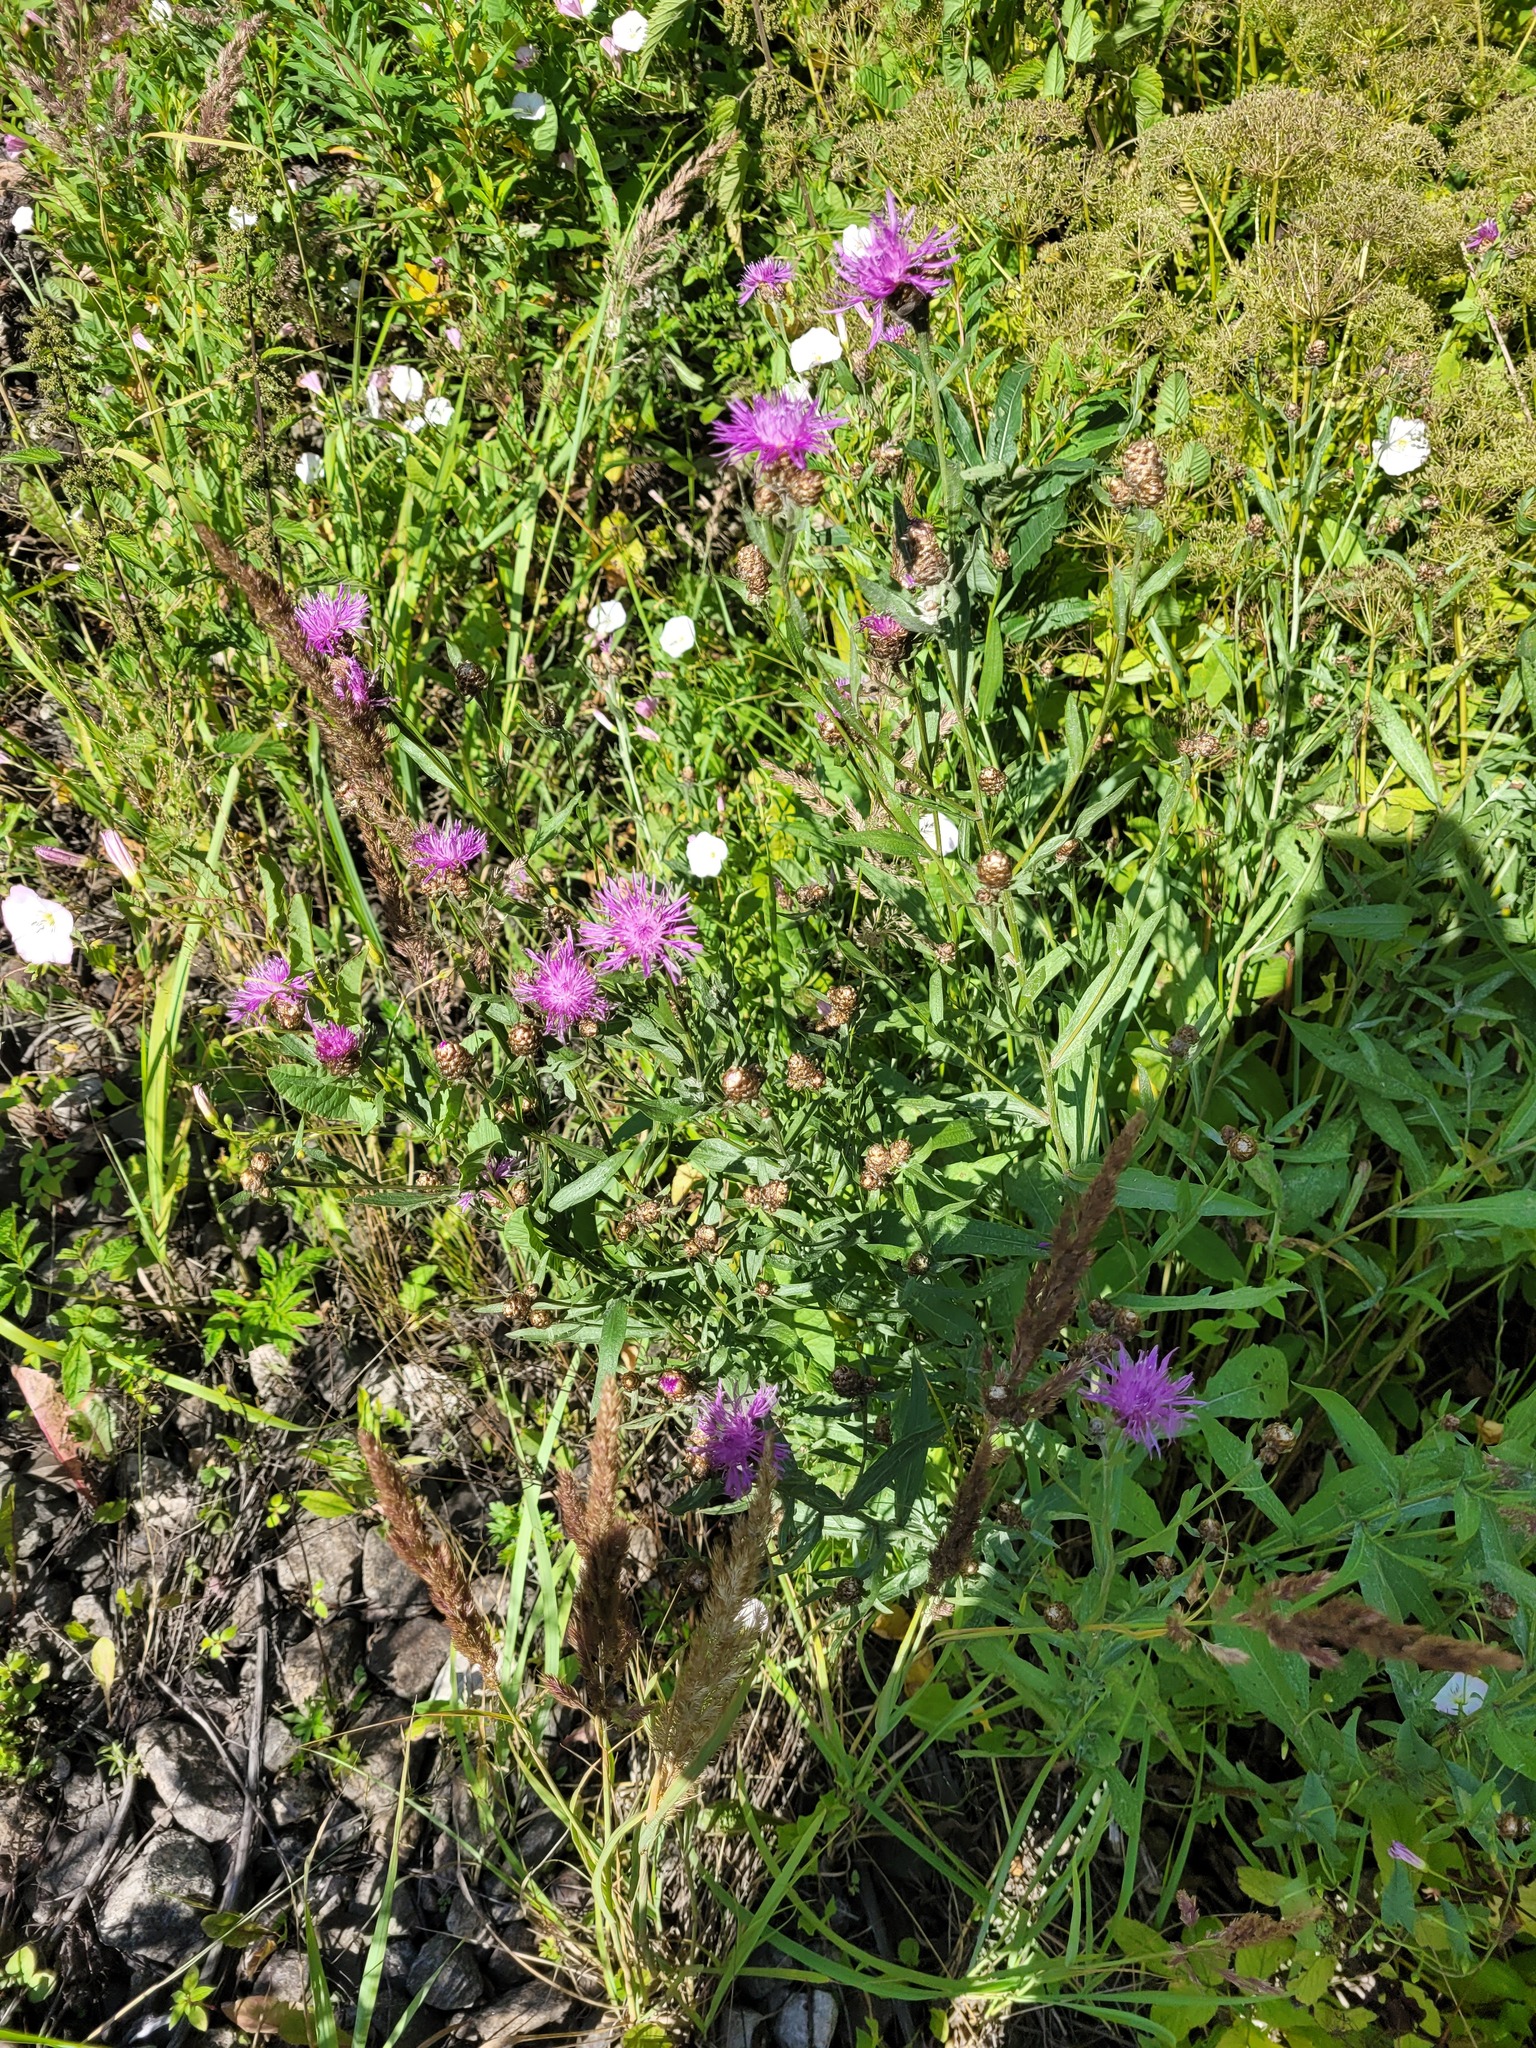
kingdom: Plantae
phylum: Tracheophyta
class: Magnoliopsida
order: Asterales
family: Asteraceae
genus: Centaurea
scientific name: Centaurea jacea
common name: Brown knapweed
